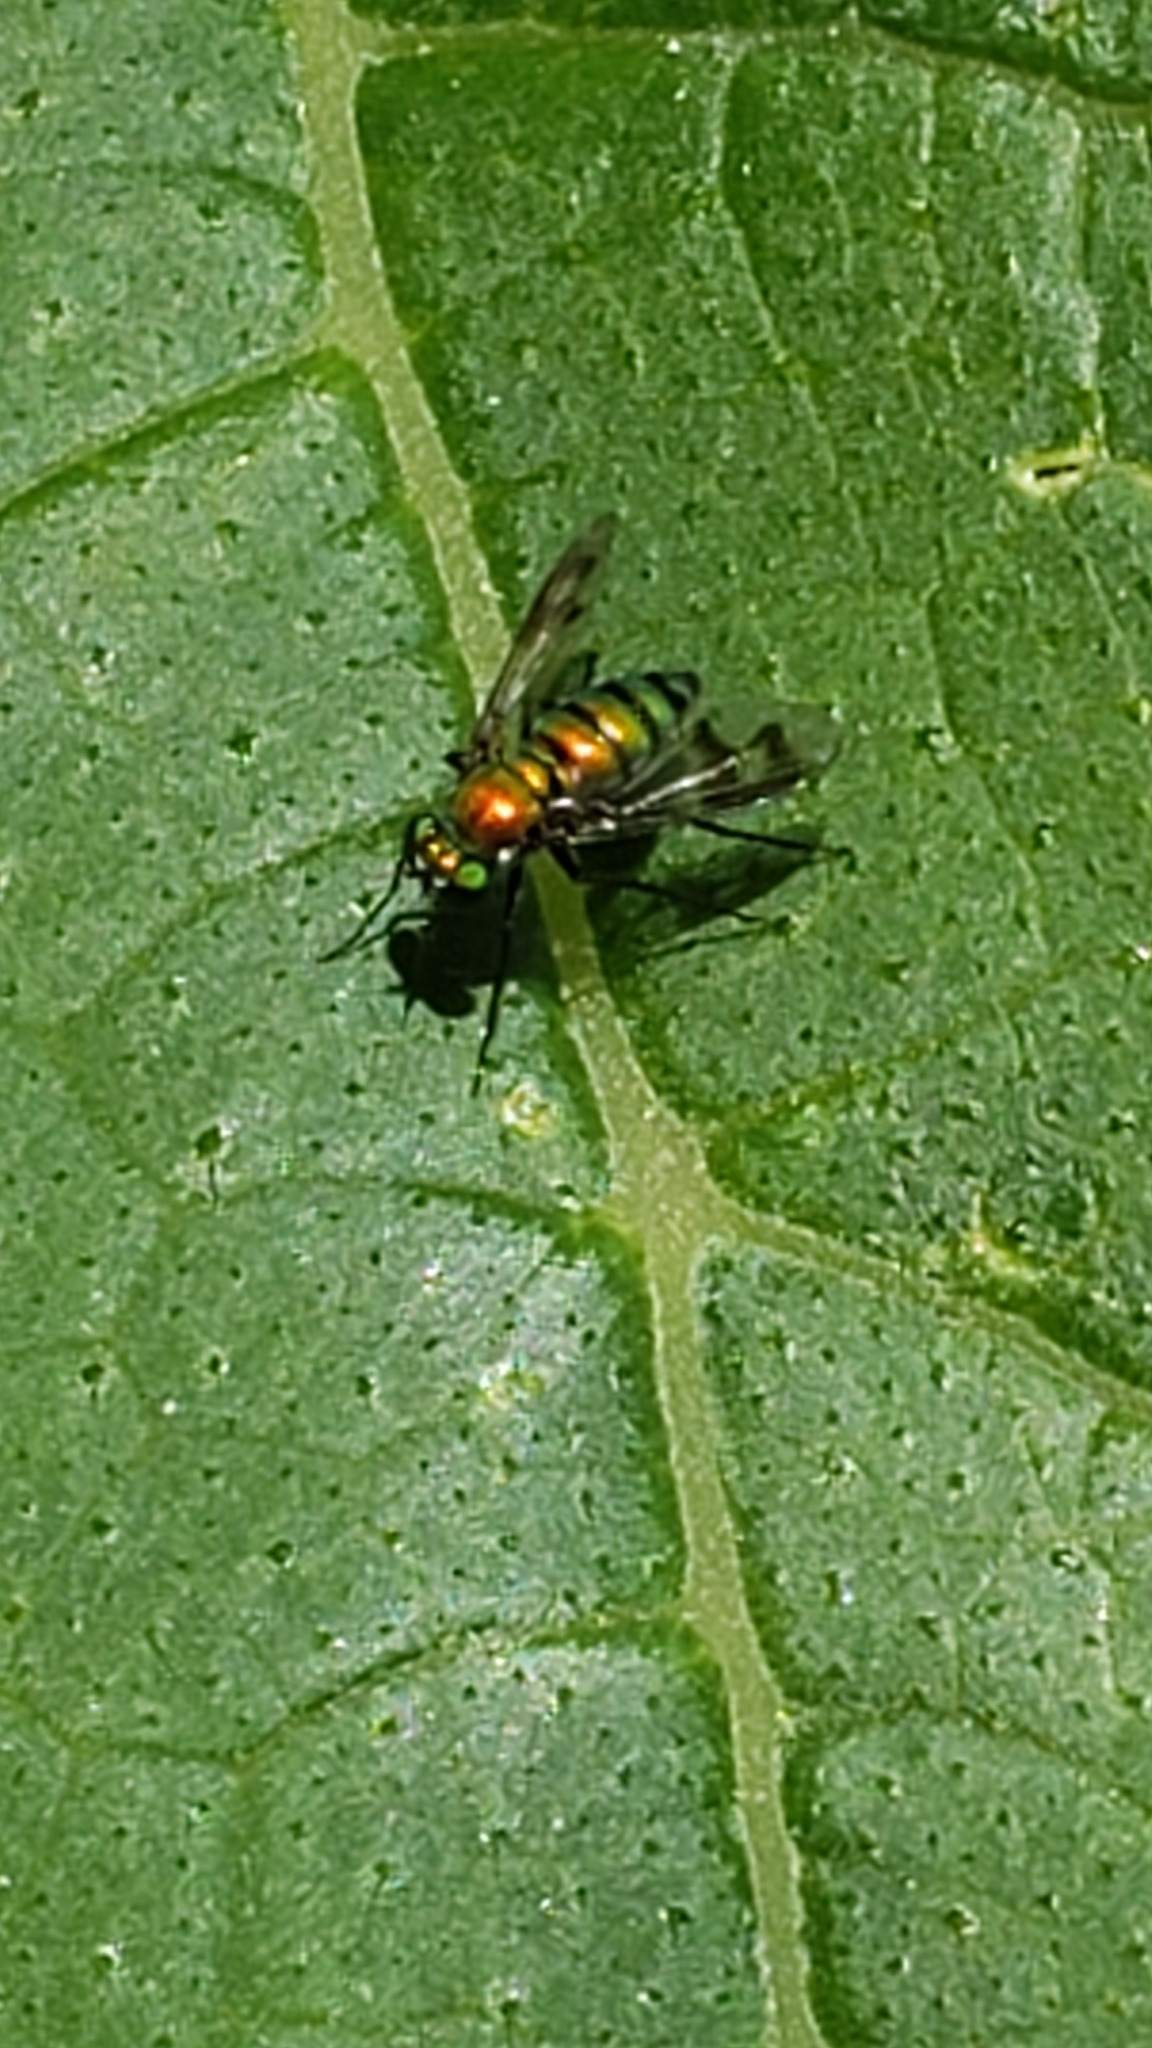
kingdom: Animalia
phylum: Arthropoda
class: Insecta
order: Diptera
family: Dolichopodidae
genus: Condylostylus
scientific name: Condylostylus occidentalis
